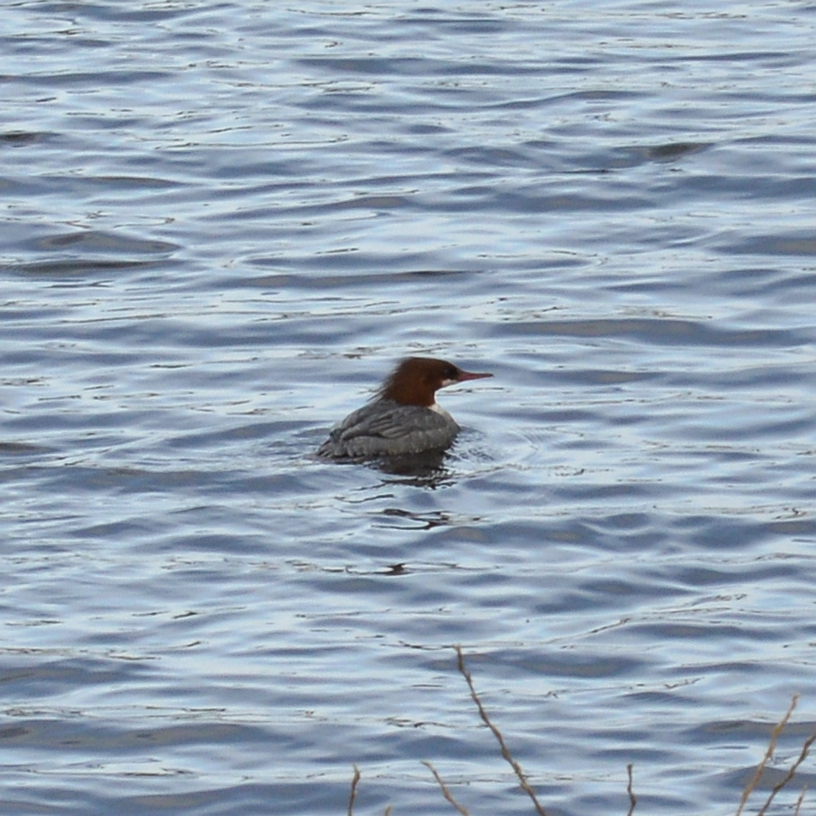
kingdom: Animalia
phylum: Chordata
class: Aves
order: Anseriformes
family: Anatidae
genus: Mergus
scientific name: Mergus merganser
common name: Common merganser
